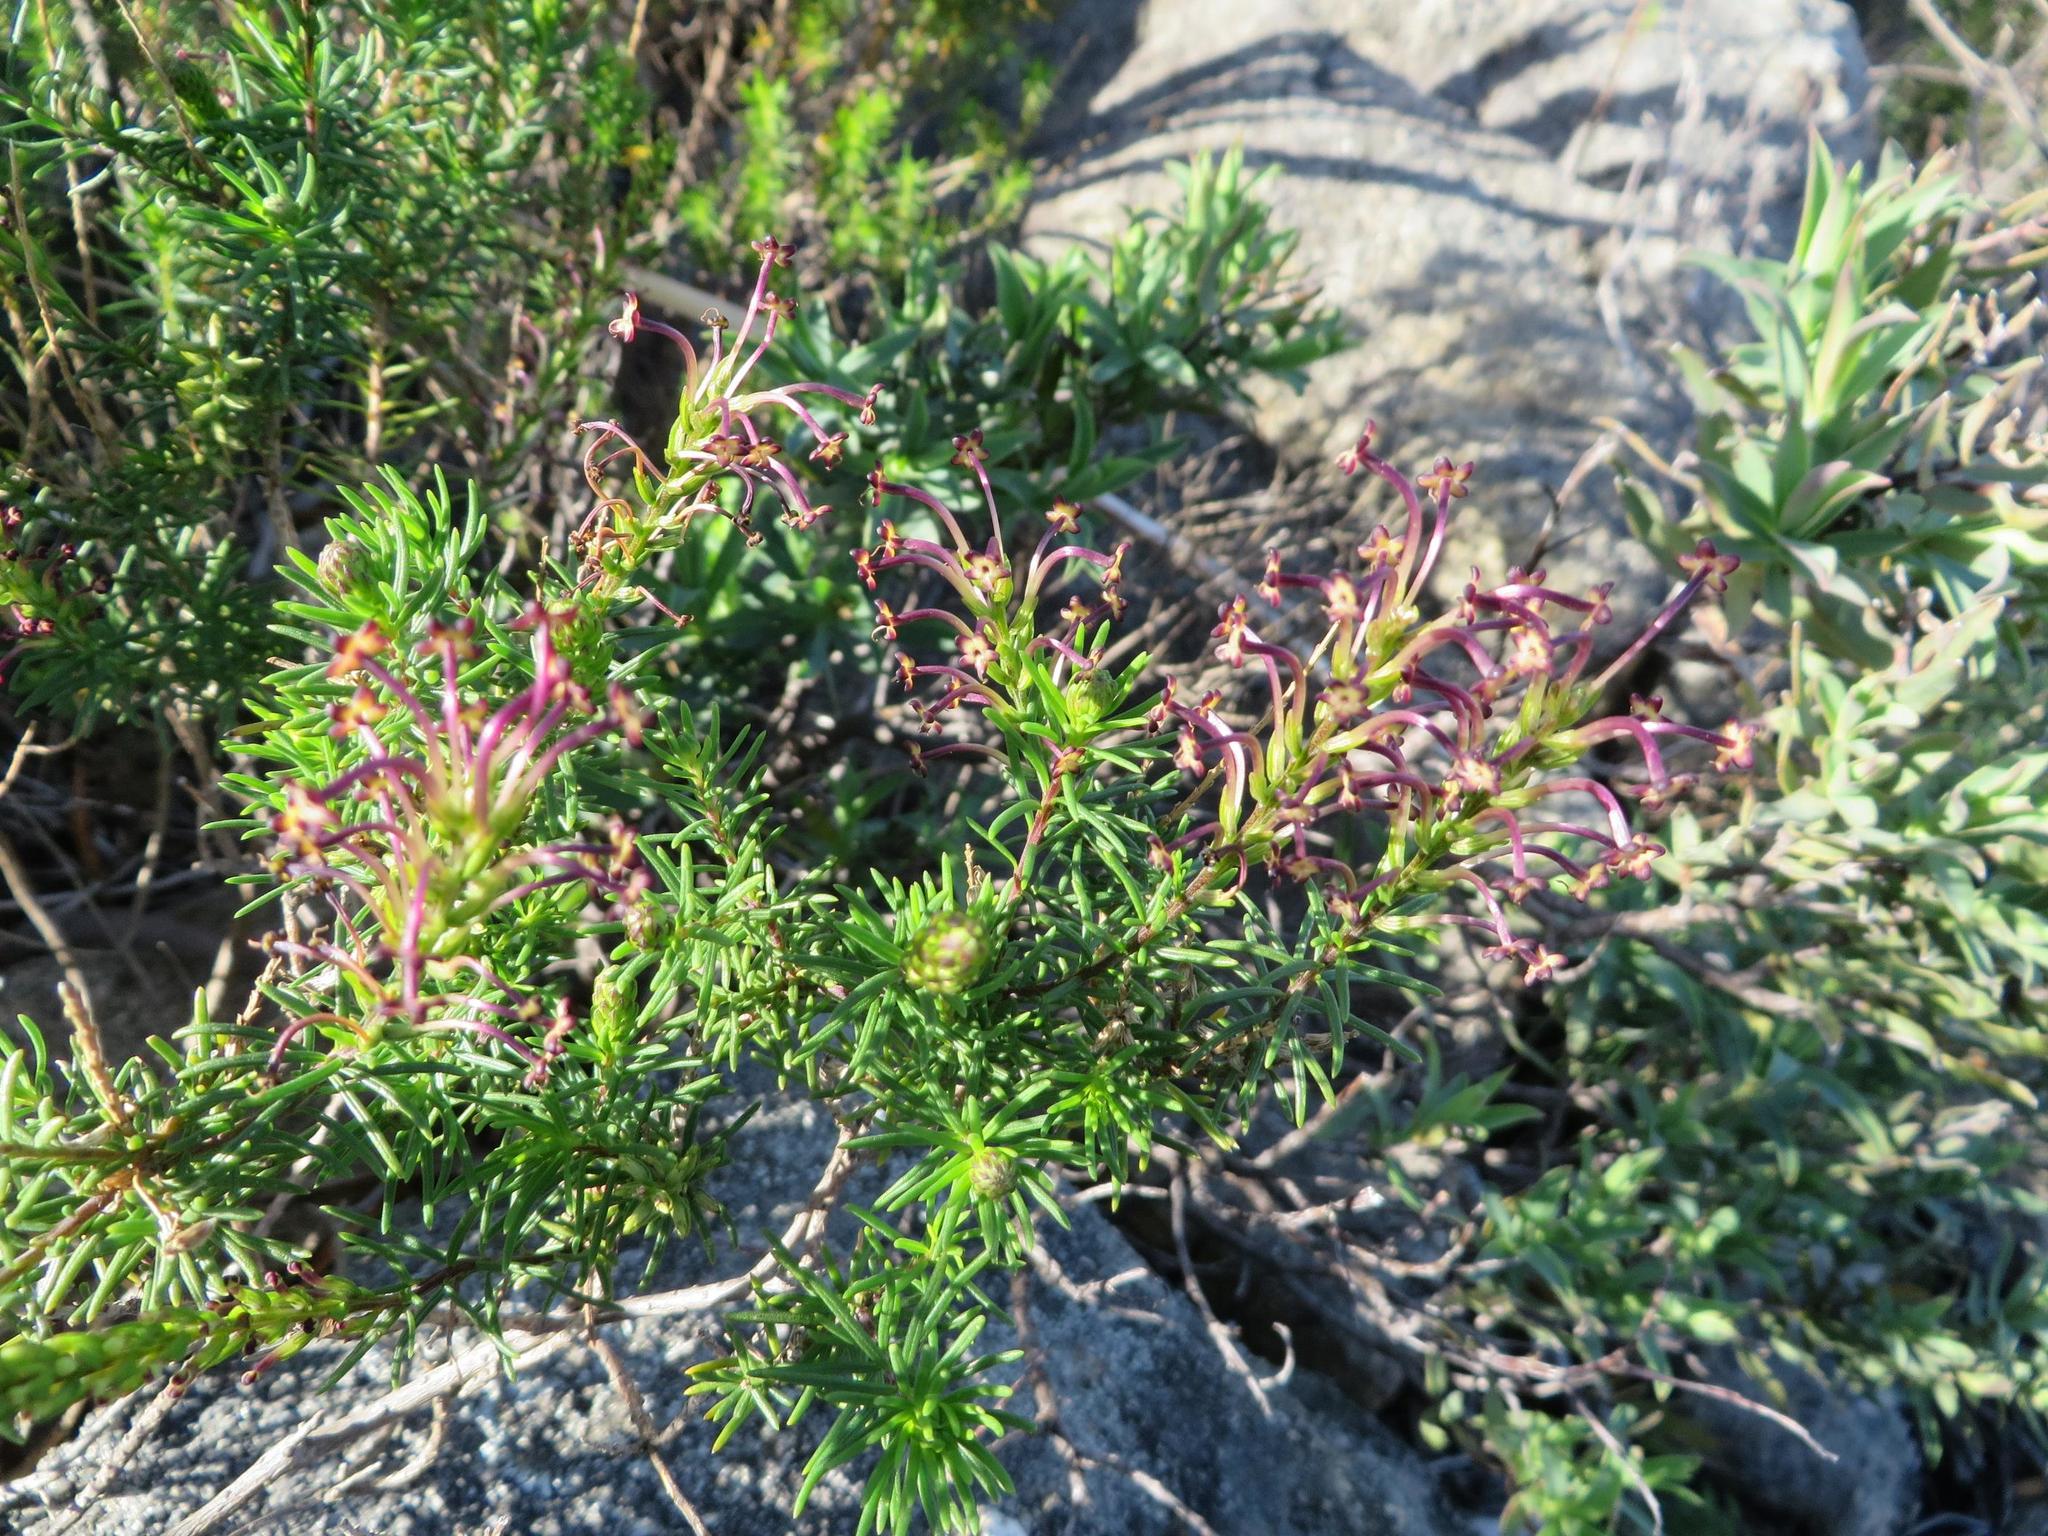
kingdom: Plantae
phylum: Tracheophyta
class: Magnoliopsida
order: Lamiales
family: Scrophulariaceae
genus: Microdon
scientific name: Microdon dubius
